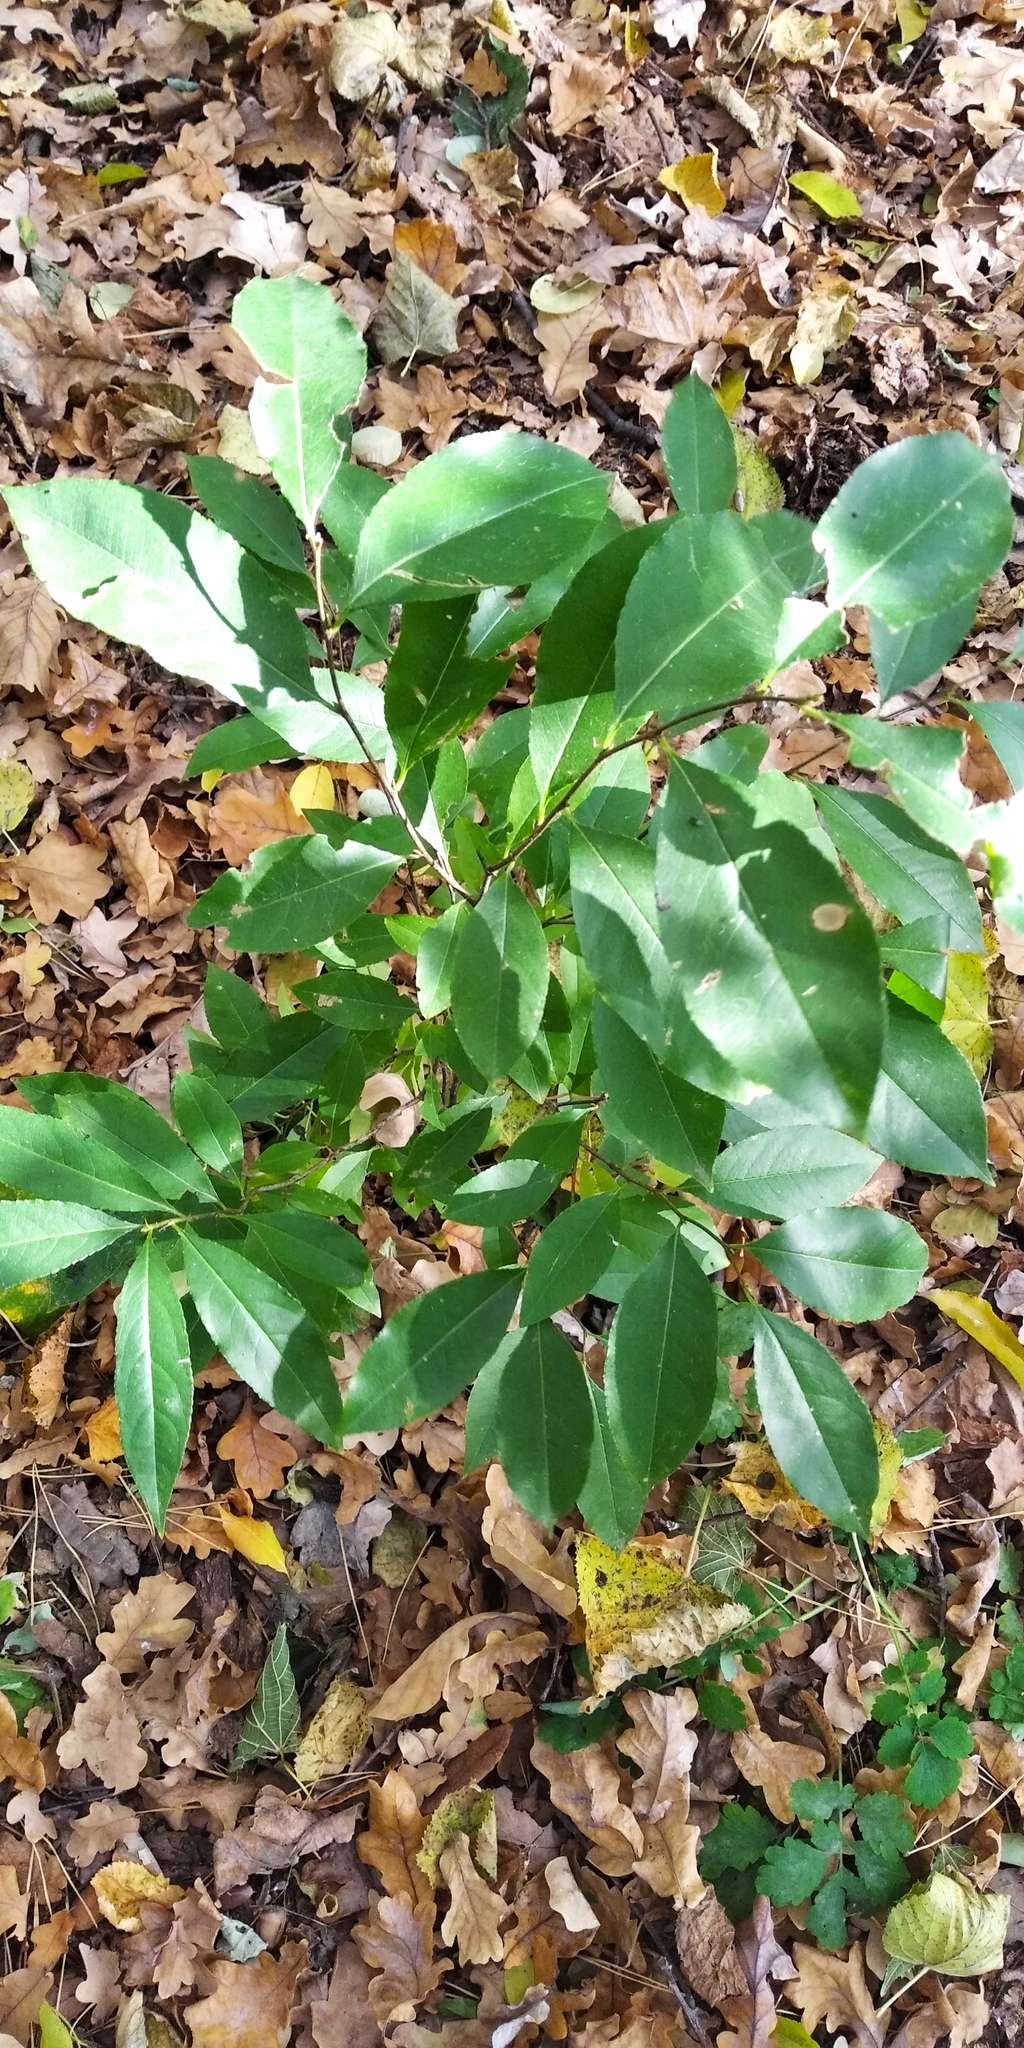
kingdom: Plantae
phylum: Tracheophyta
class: Magnoliopsida
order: Rosales
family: Rosaceae
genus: Prunus
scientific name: Prunus serotina
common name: Black cherry
